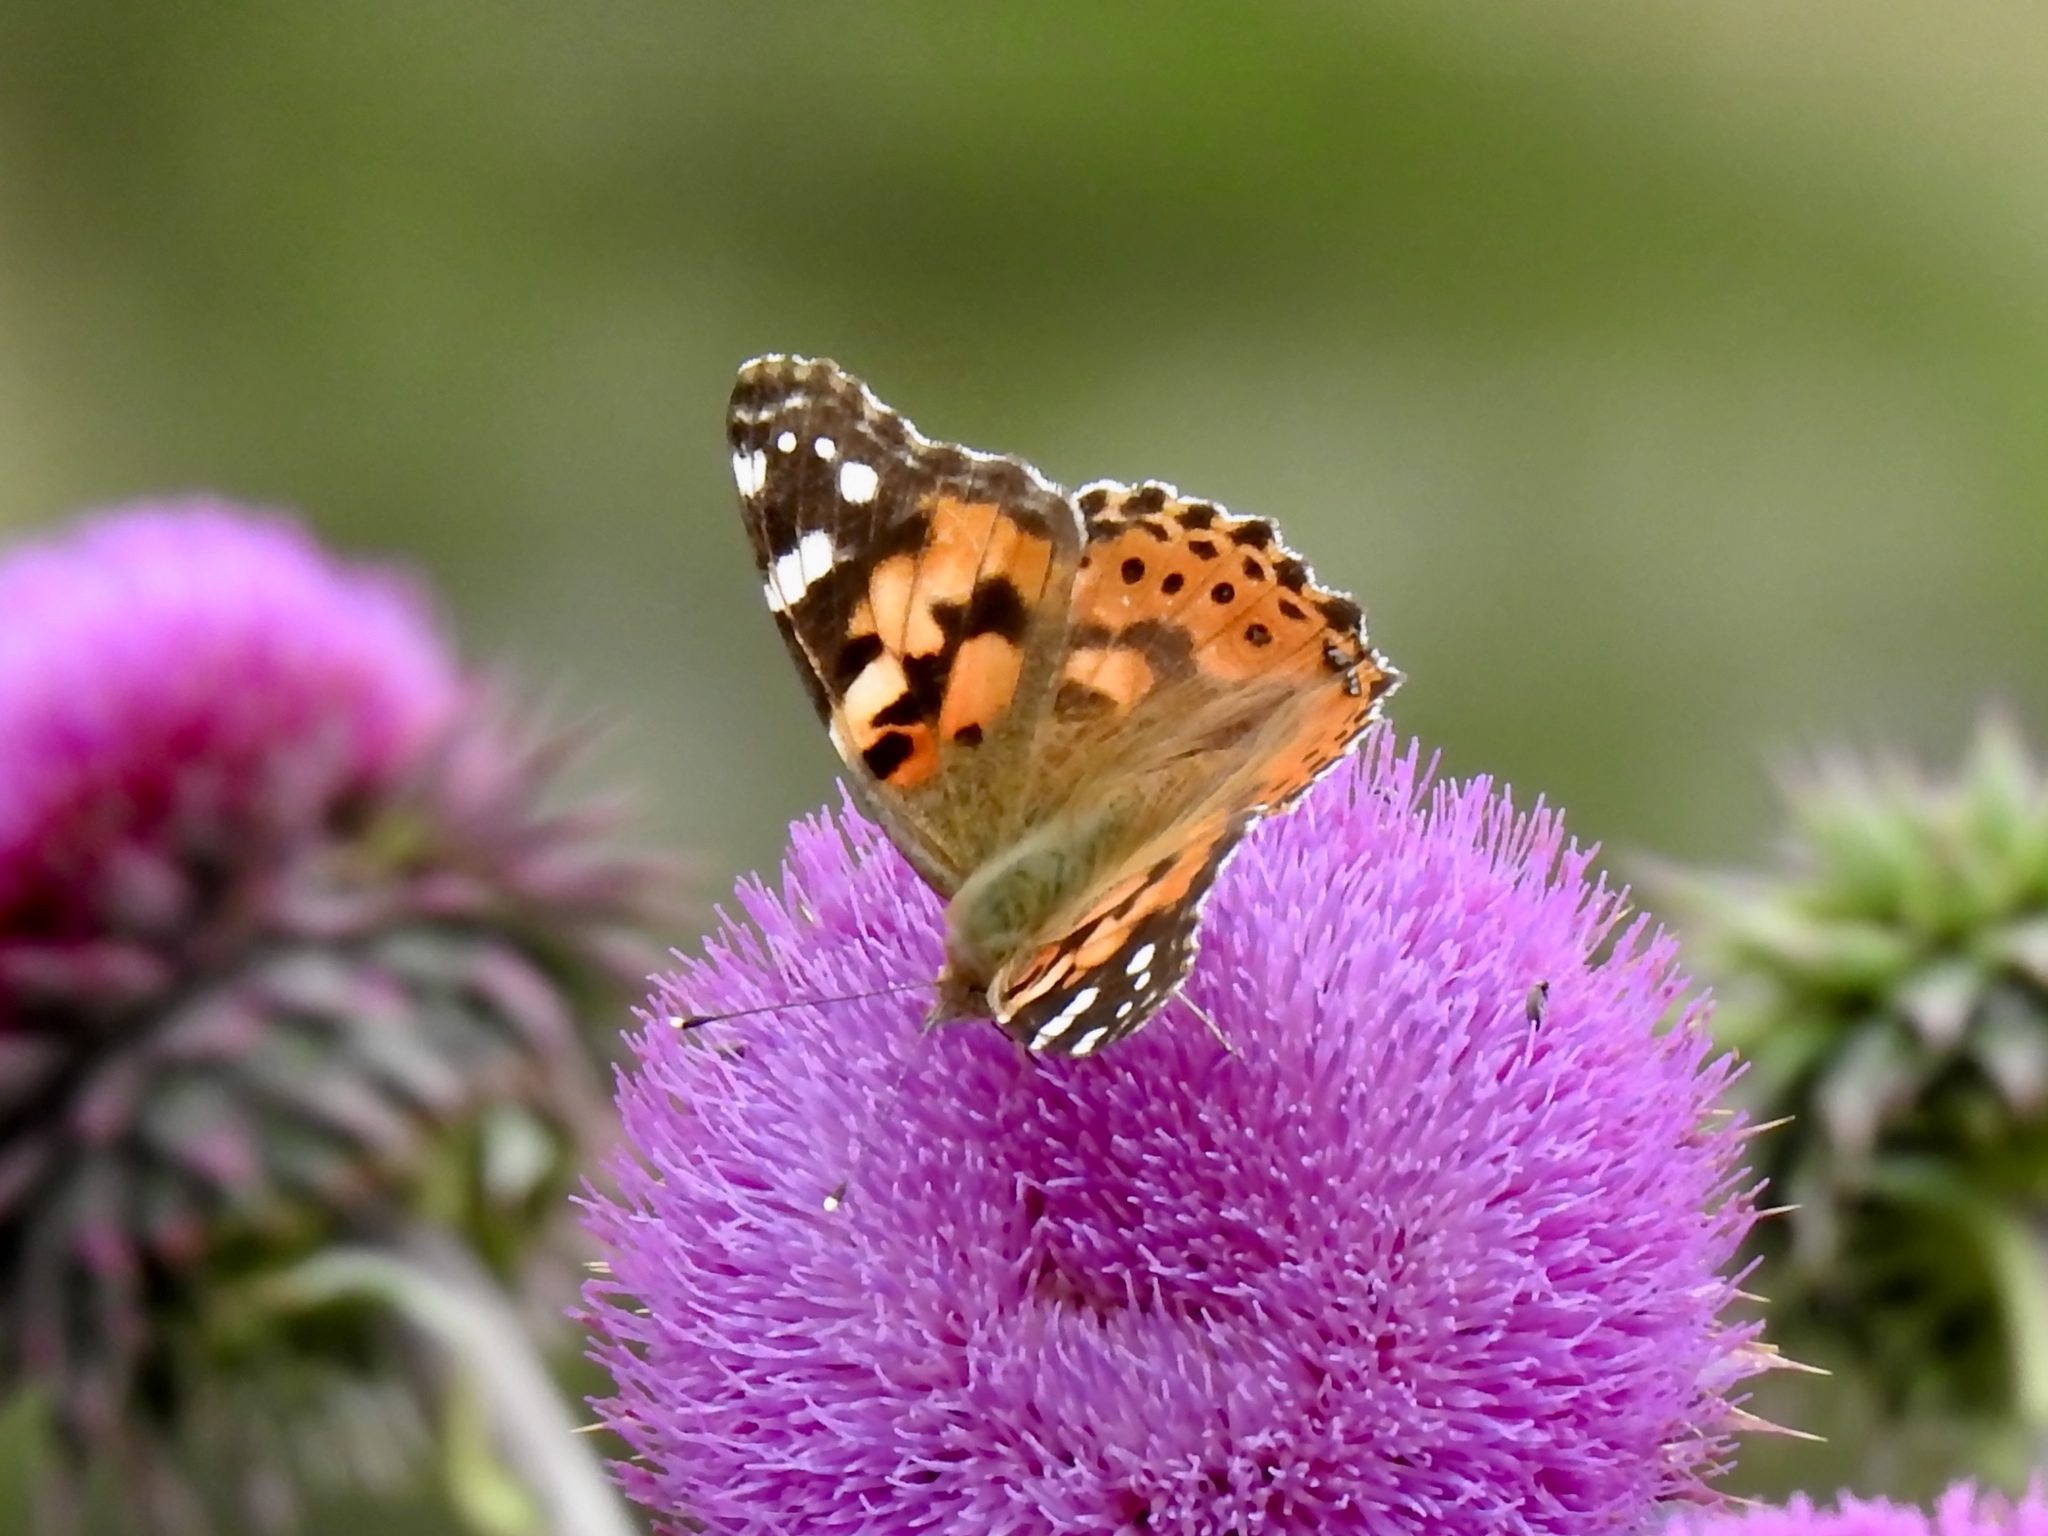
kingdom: Animalia
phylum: Arthropoda
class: Insecta
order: Lepidoptera
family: Nymphalidae
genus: Vanessa
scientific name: Vanessa cardui
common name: Painted lady
